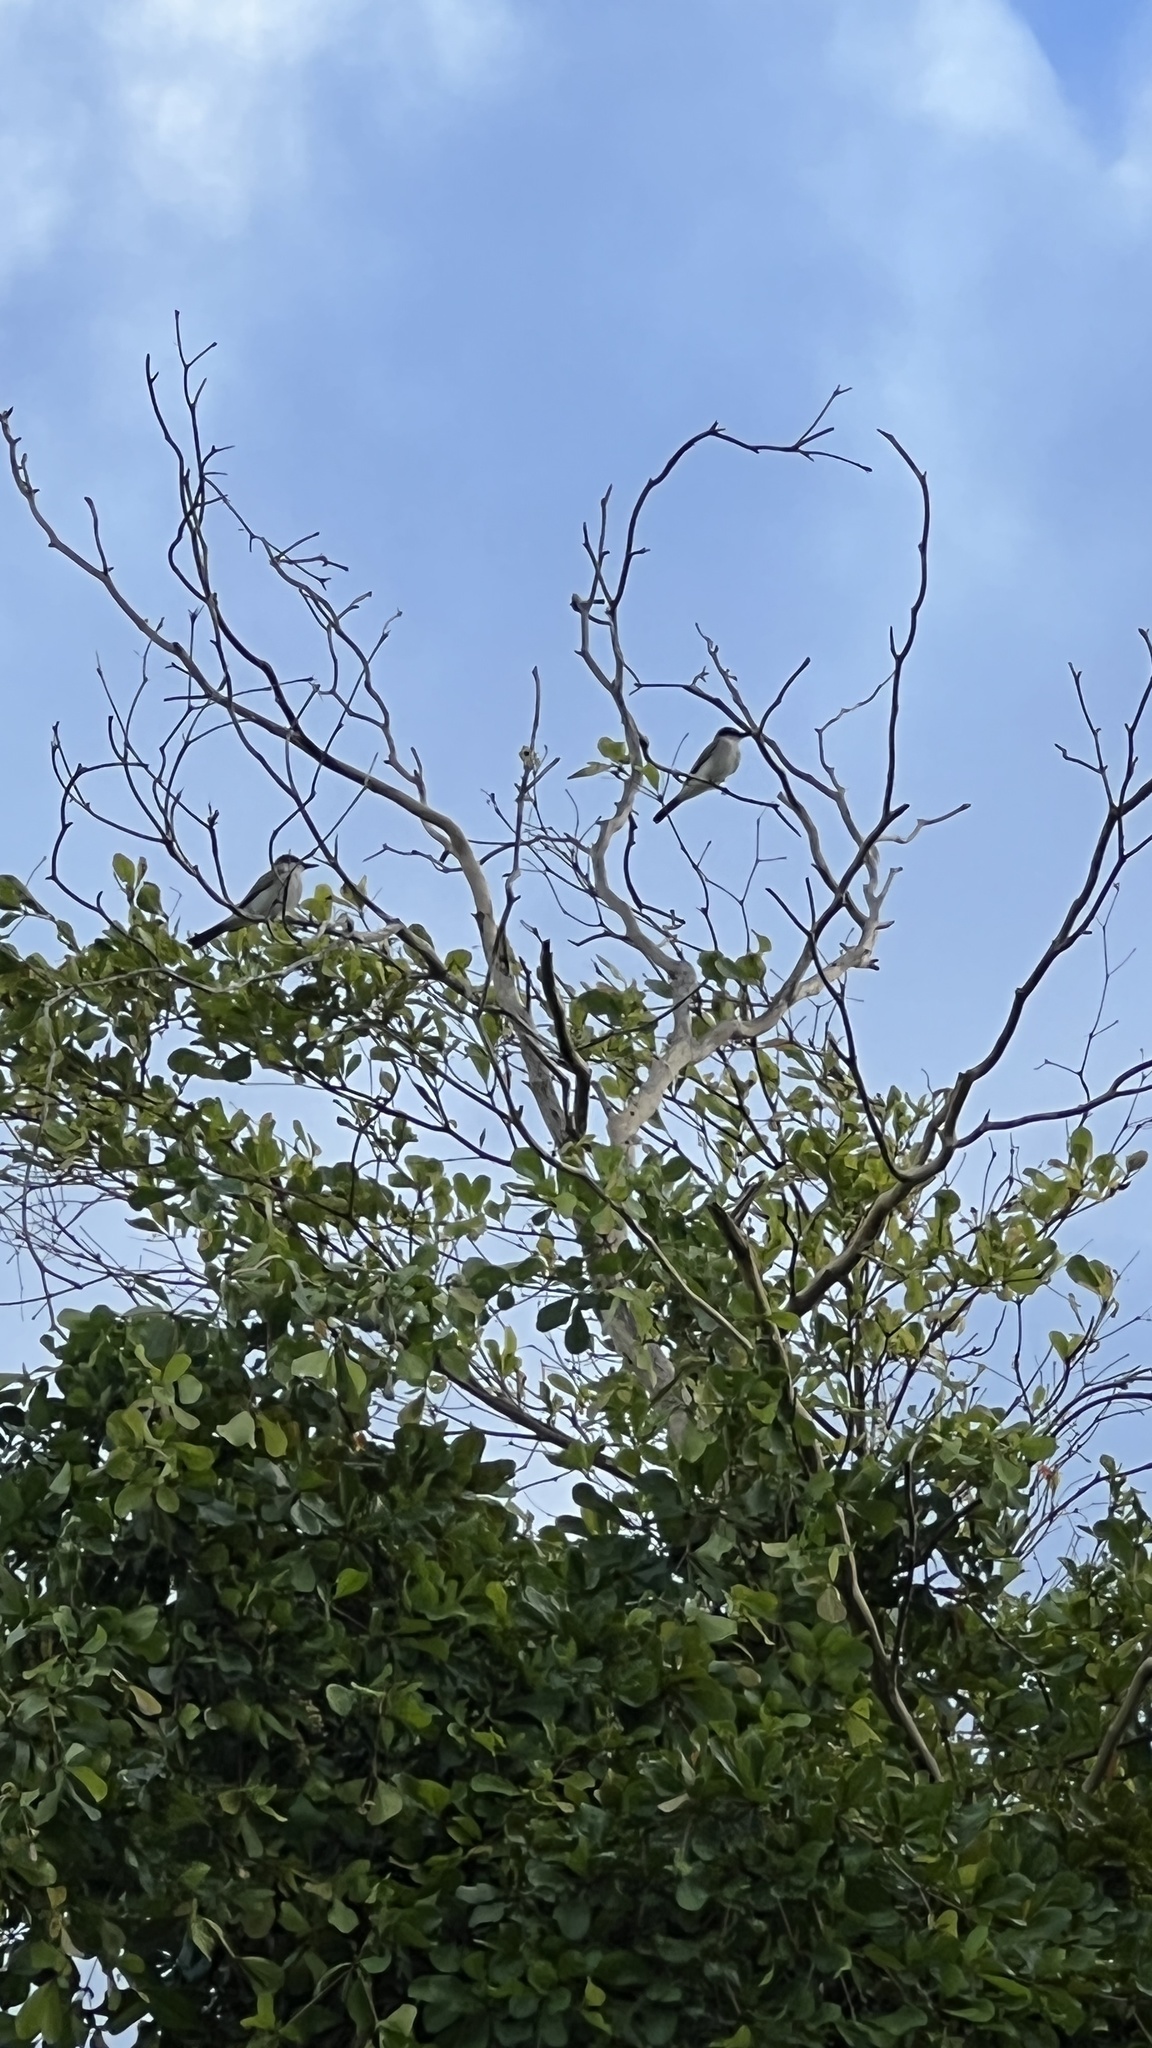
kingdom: Animalia
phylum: Chordata
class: Aves
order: Passeriformes
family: Tyrannidae
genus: Tyrannus
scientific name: Tyrannus dominicensis
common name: Gray kingbird
